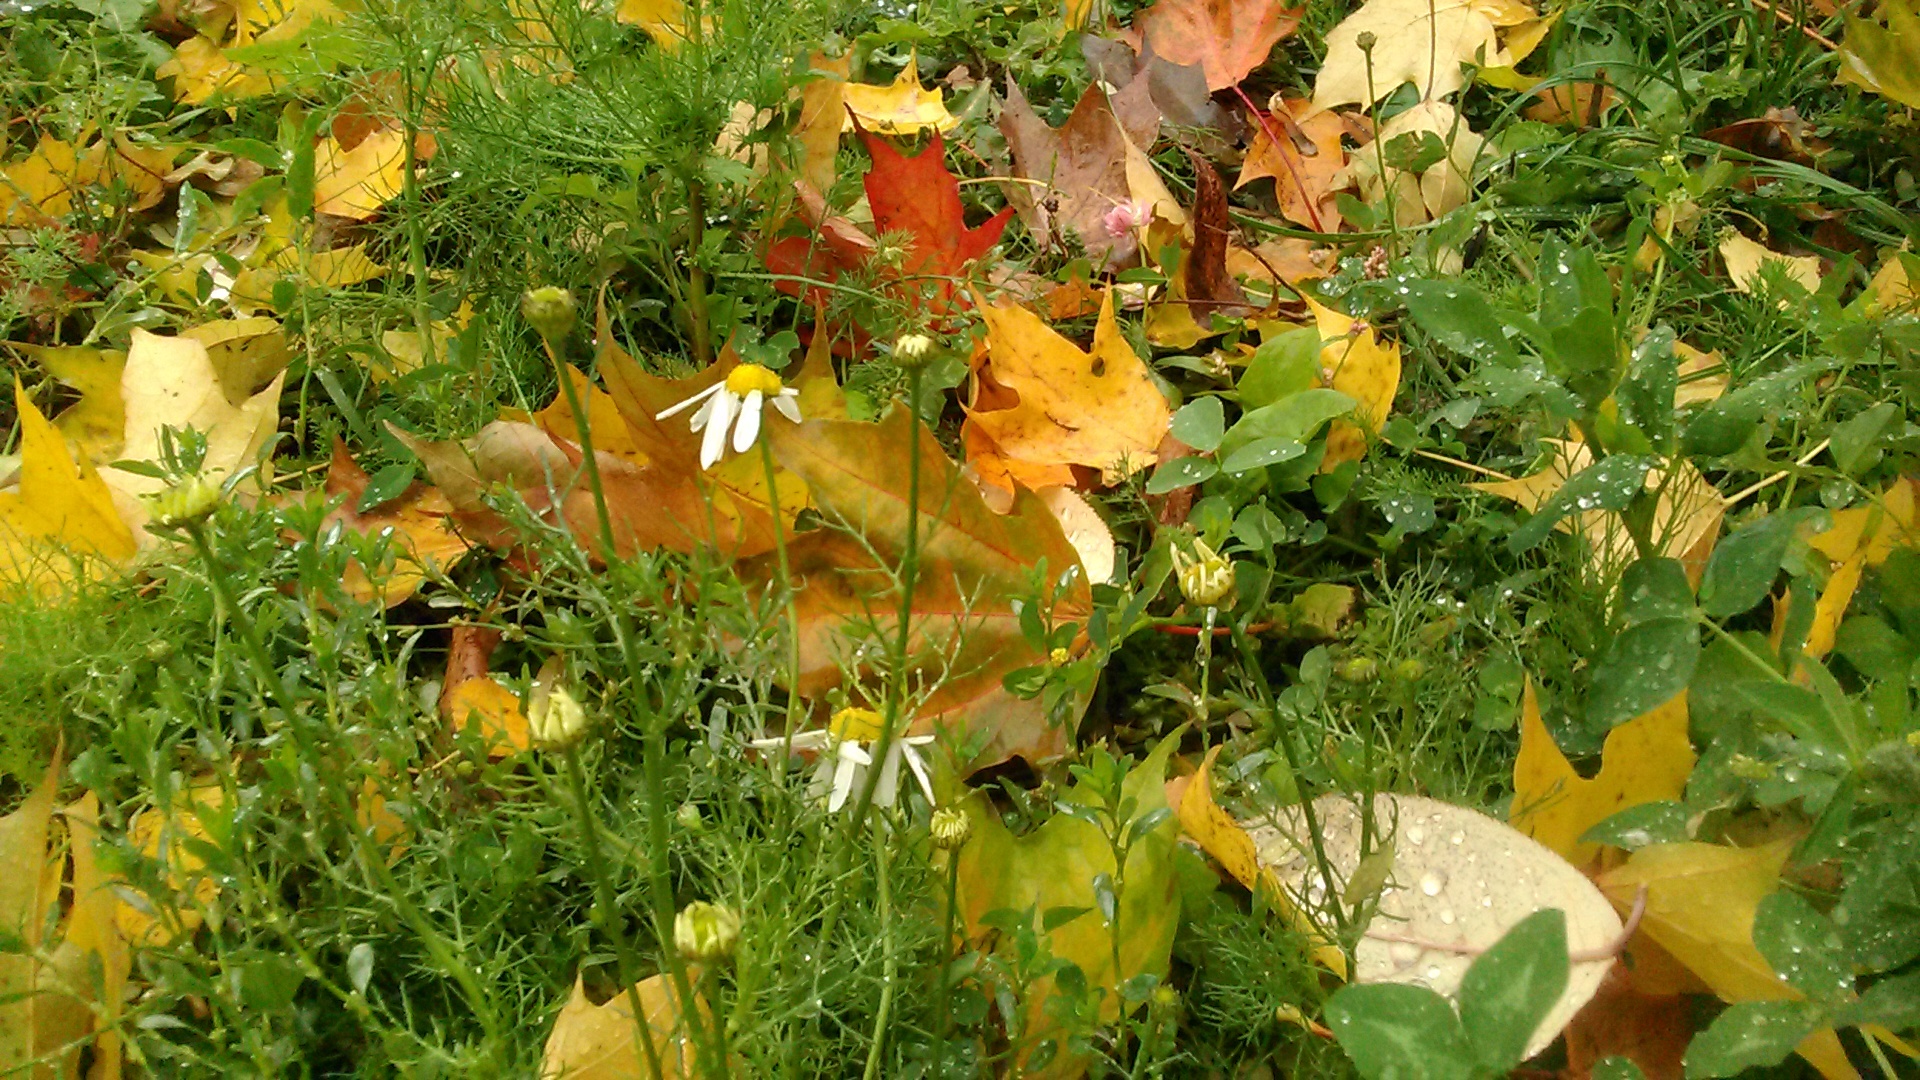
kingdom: Plantae
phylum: Tracheophyta
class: Magnoliopsida
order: Asterales
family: Asteraceae
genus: Tripleurospermum
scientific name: Tripleurospermum inodorum
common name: Scentless mayweed
